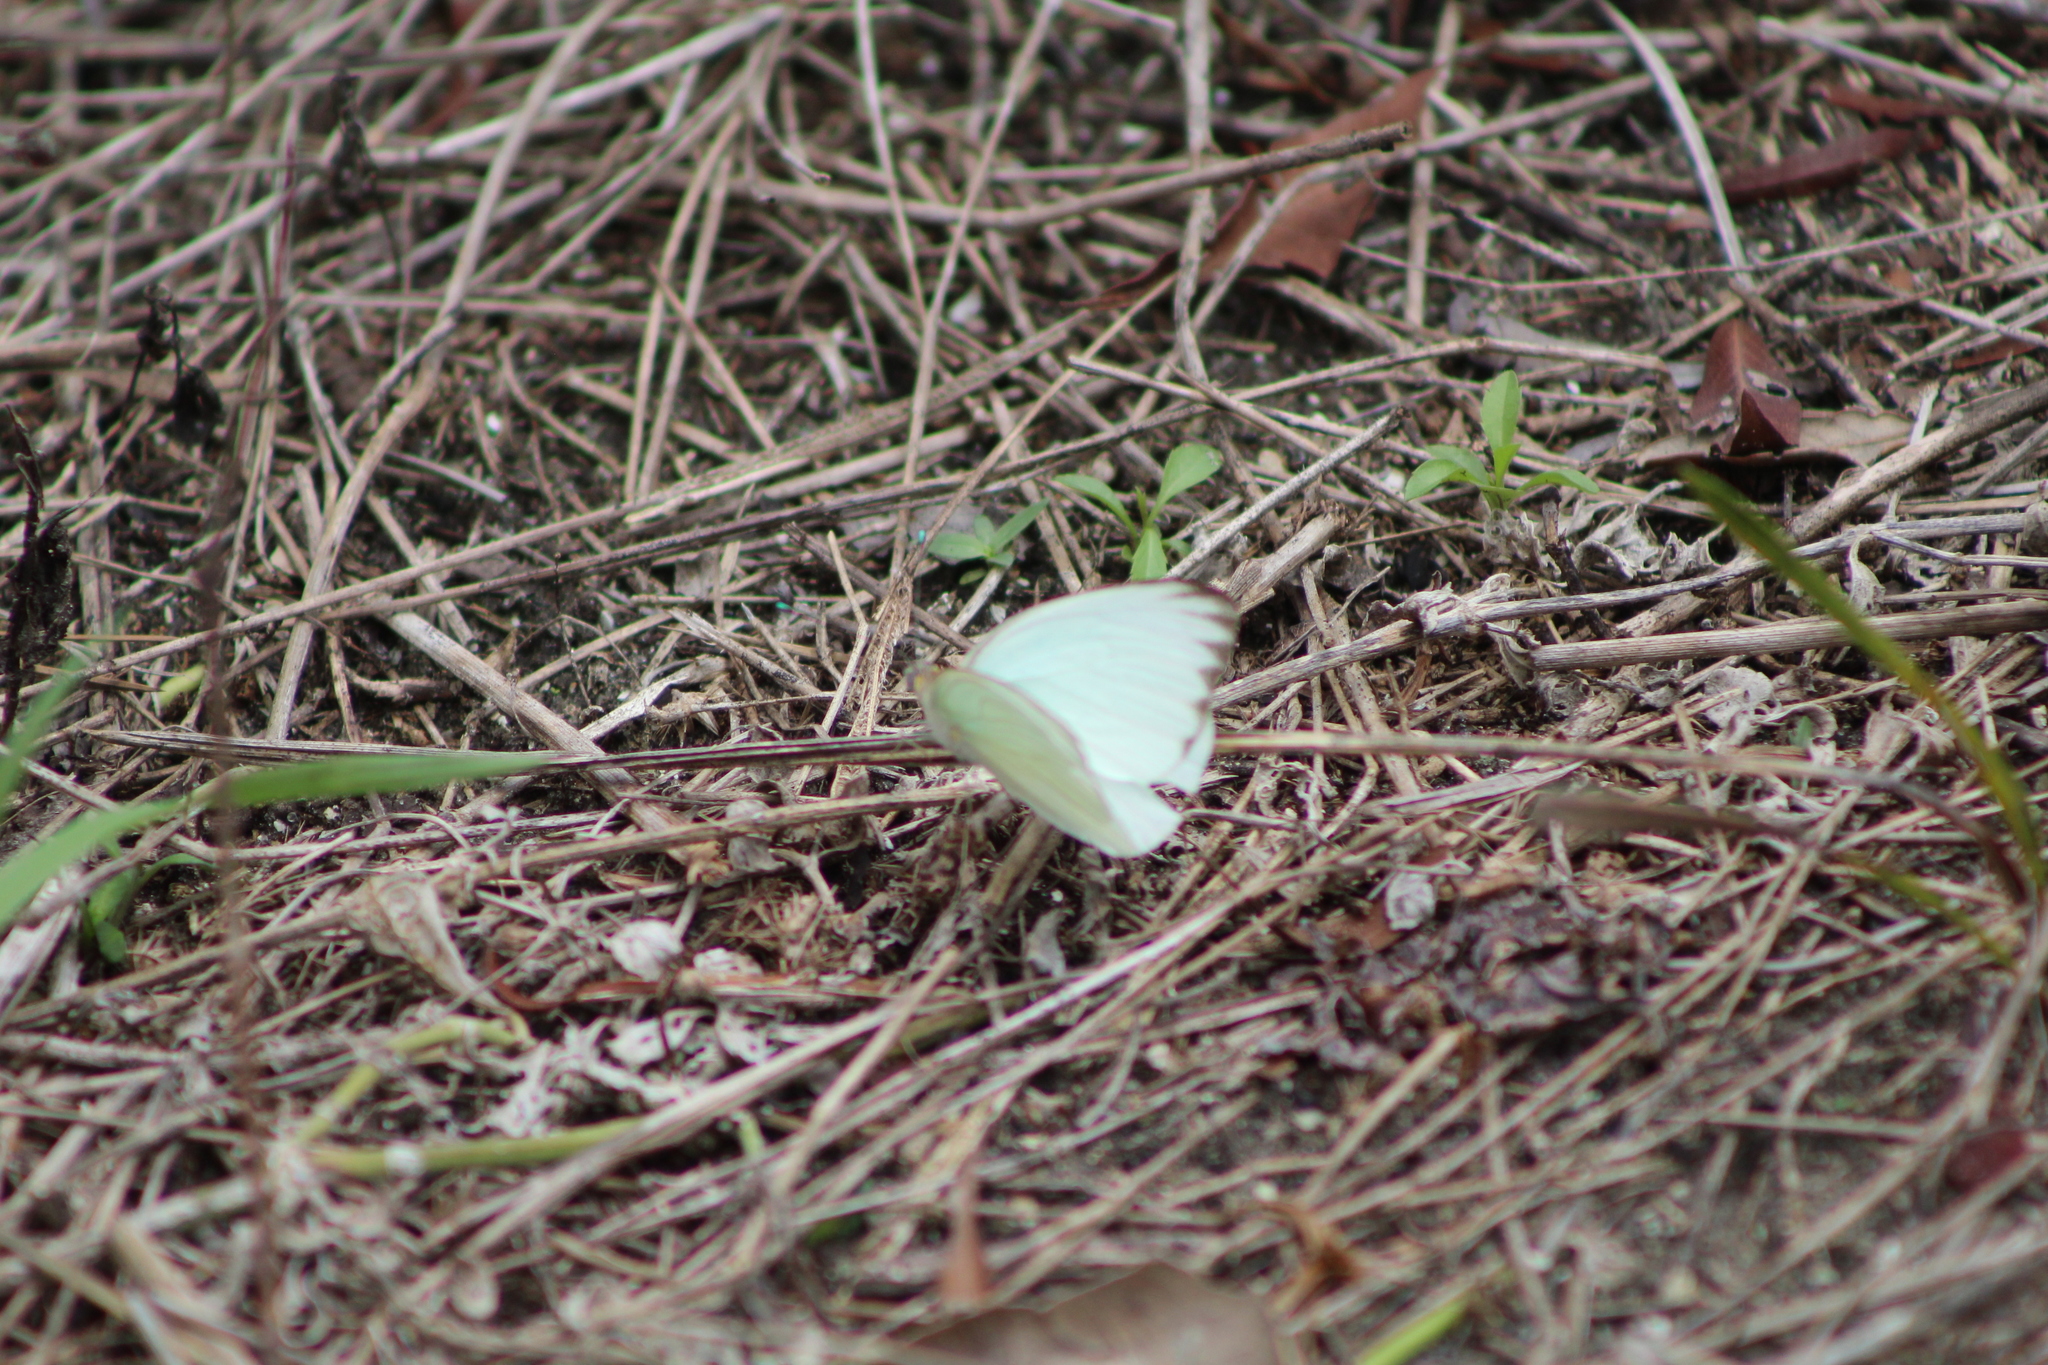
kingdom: Animalia
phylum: Arthropoda
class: Insecta
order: Lepidoptera
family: Pieridae
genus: Ascia
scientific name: Ascia monuste
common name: Great southern white
